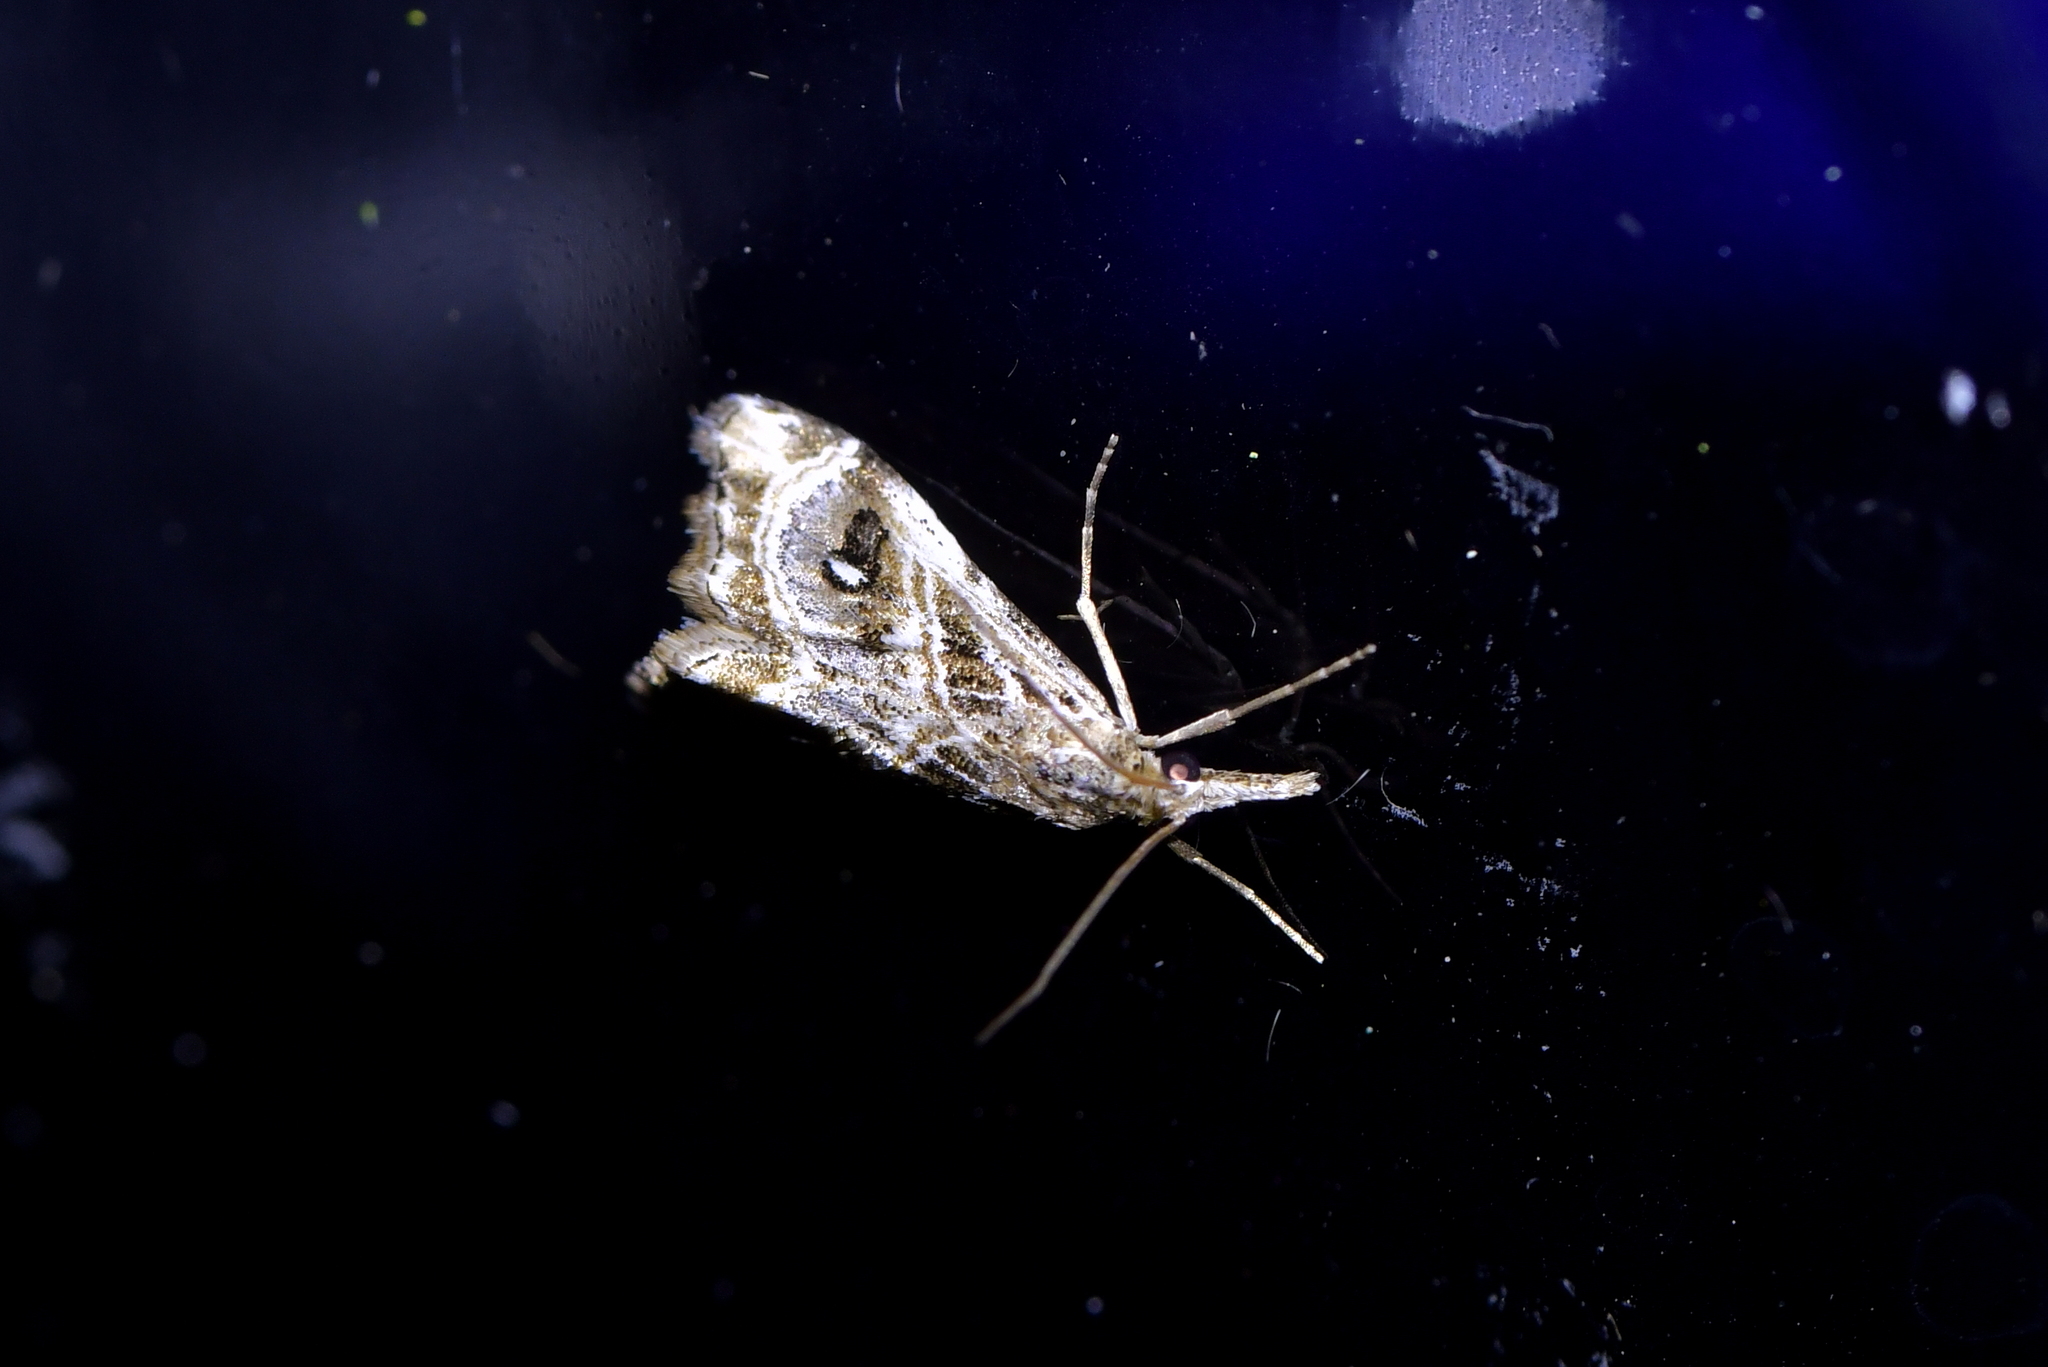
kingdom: Animalia
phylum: Arthropoda
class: Insecta
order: Lepidoptera
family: Crambidae
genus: Gadira
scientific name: Gadira acerella
